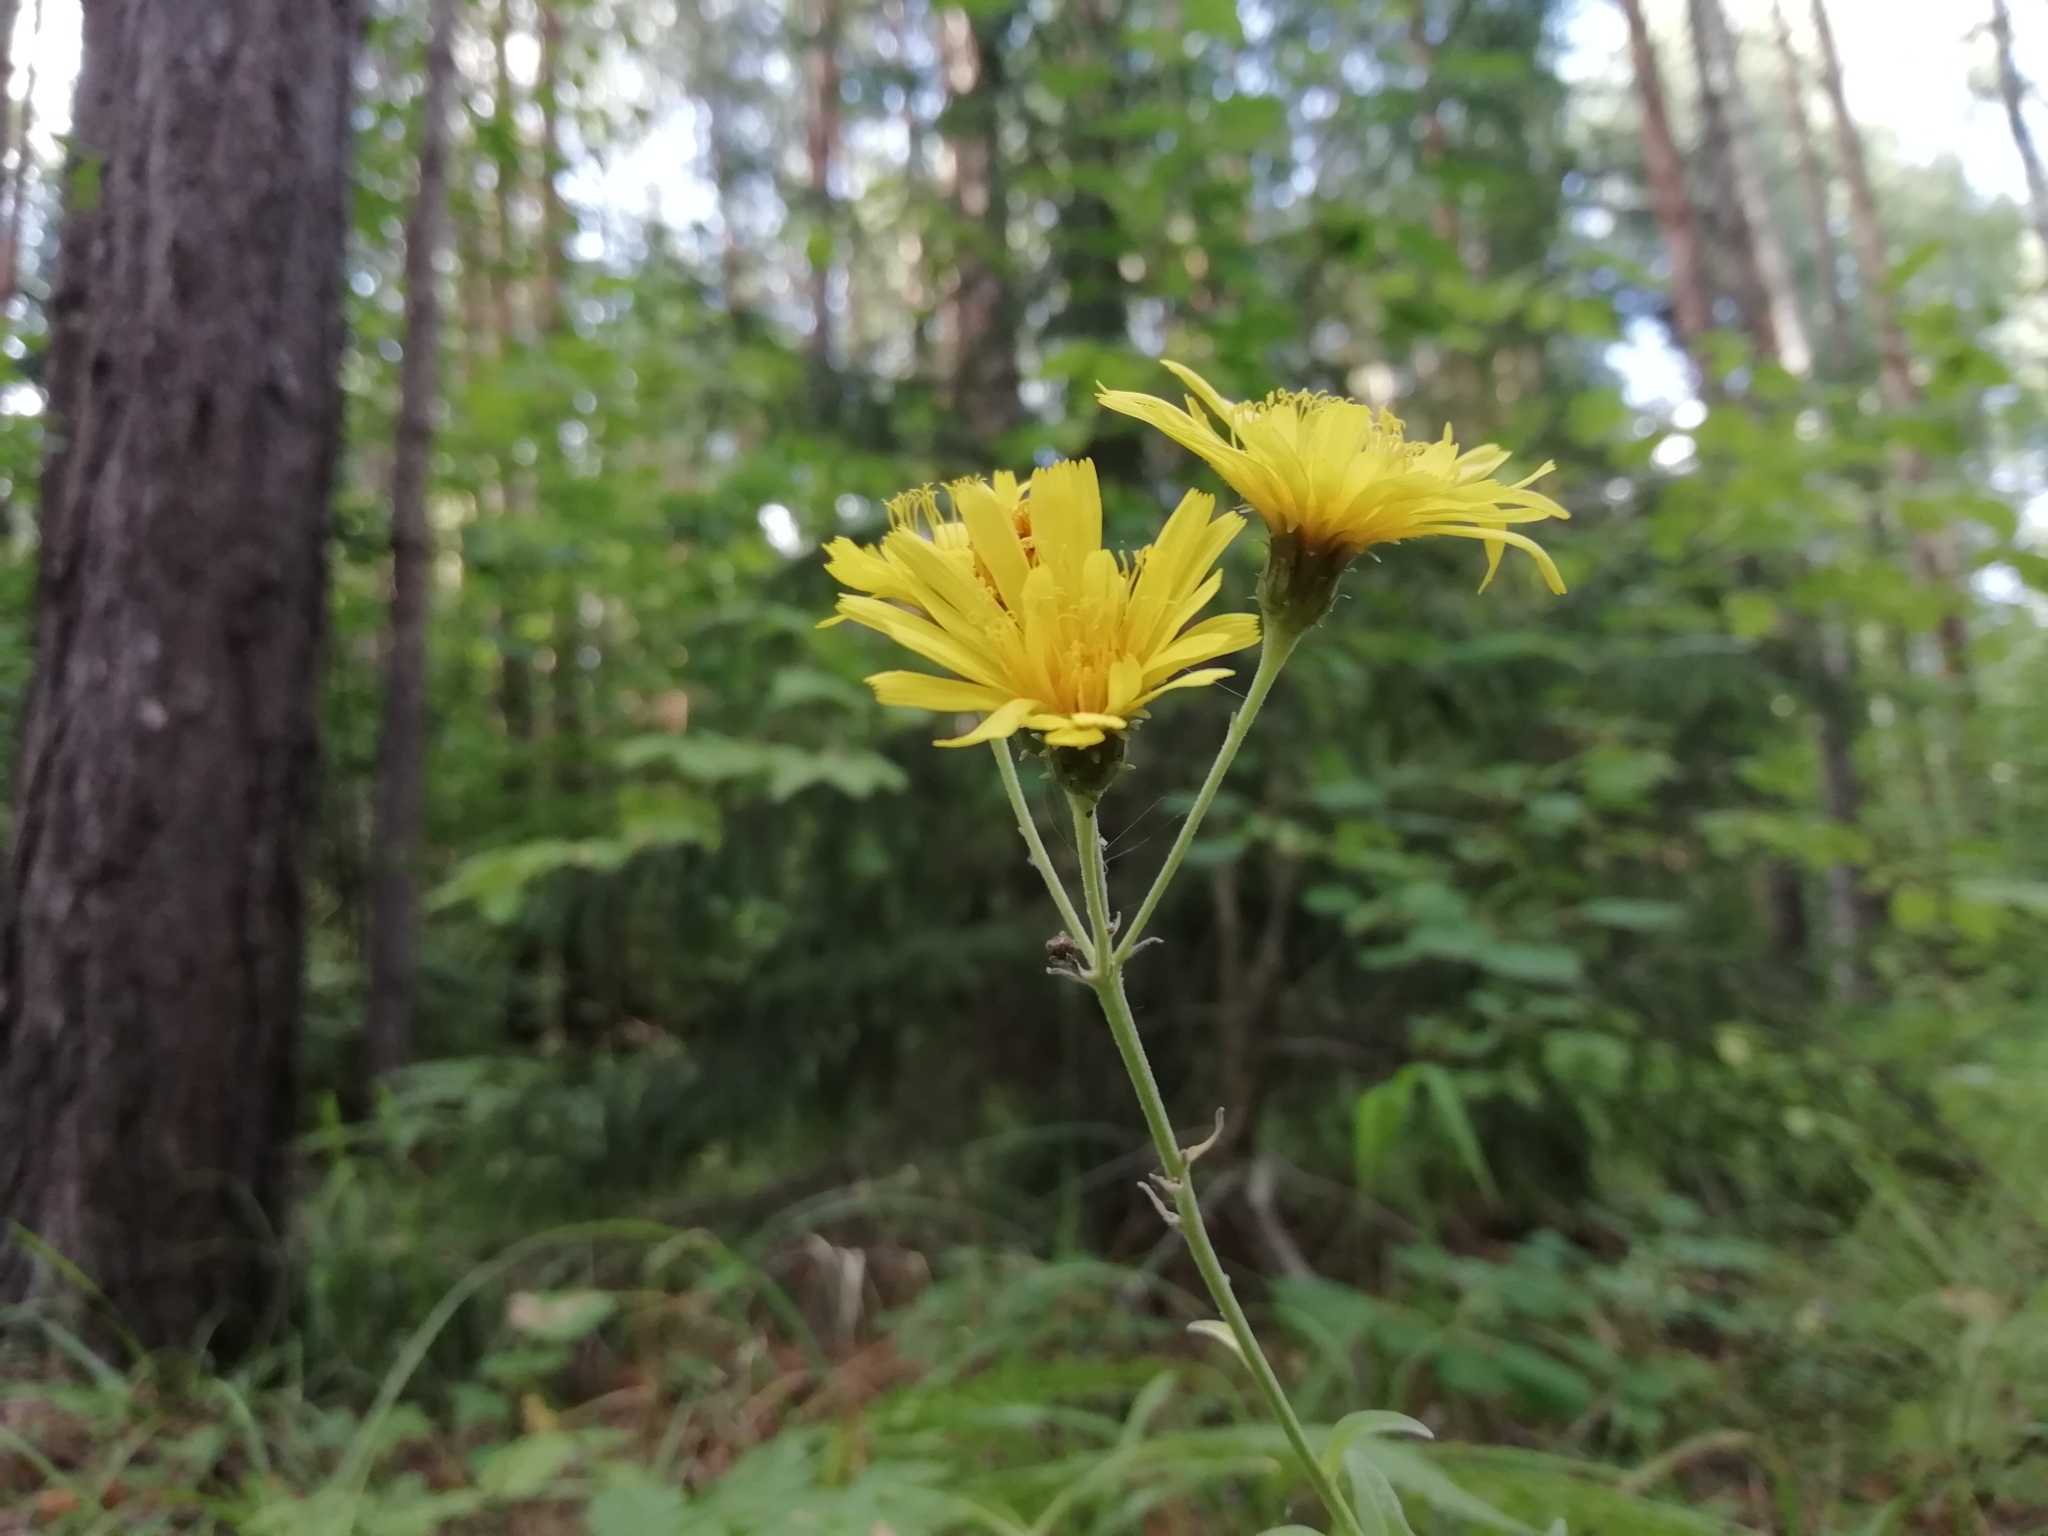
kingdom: Plantae
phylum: Tracheophyta
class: Magnoliopsida
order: Asterales
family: Asteraceae
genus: Hieracium
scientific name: Hieracium umbellatum
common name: Northern hawkweed
